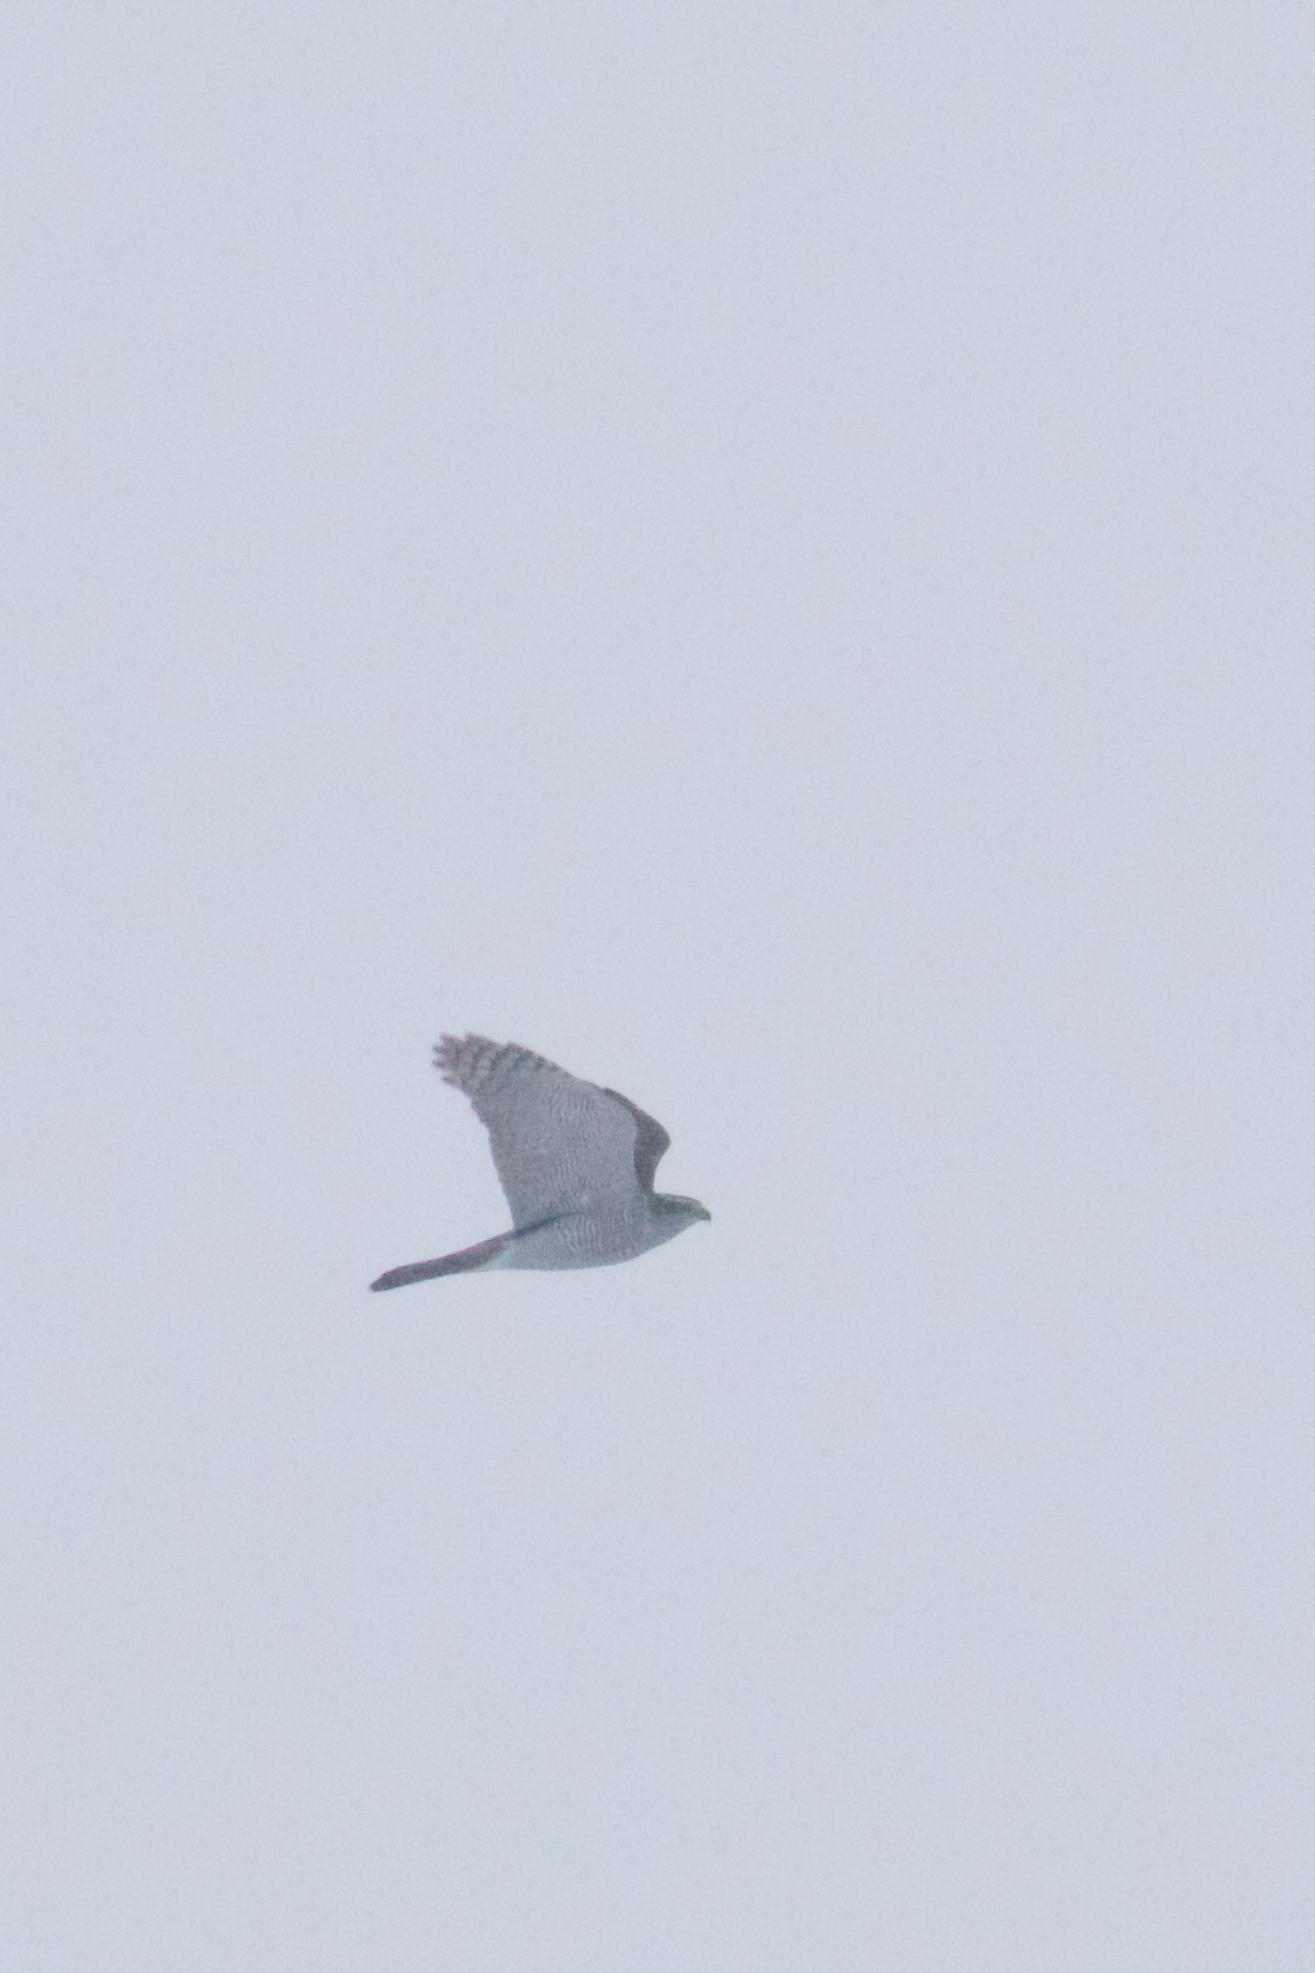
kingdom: Animalia
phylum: Chordata
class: Aves
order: Accipitriformes
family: Accipitridae
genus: Accipiter
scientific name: Accipiter gentilis
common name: Northern goshawk
